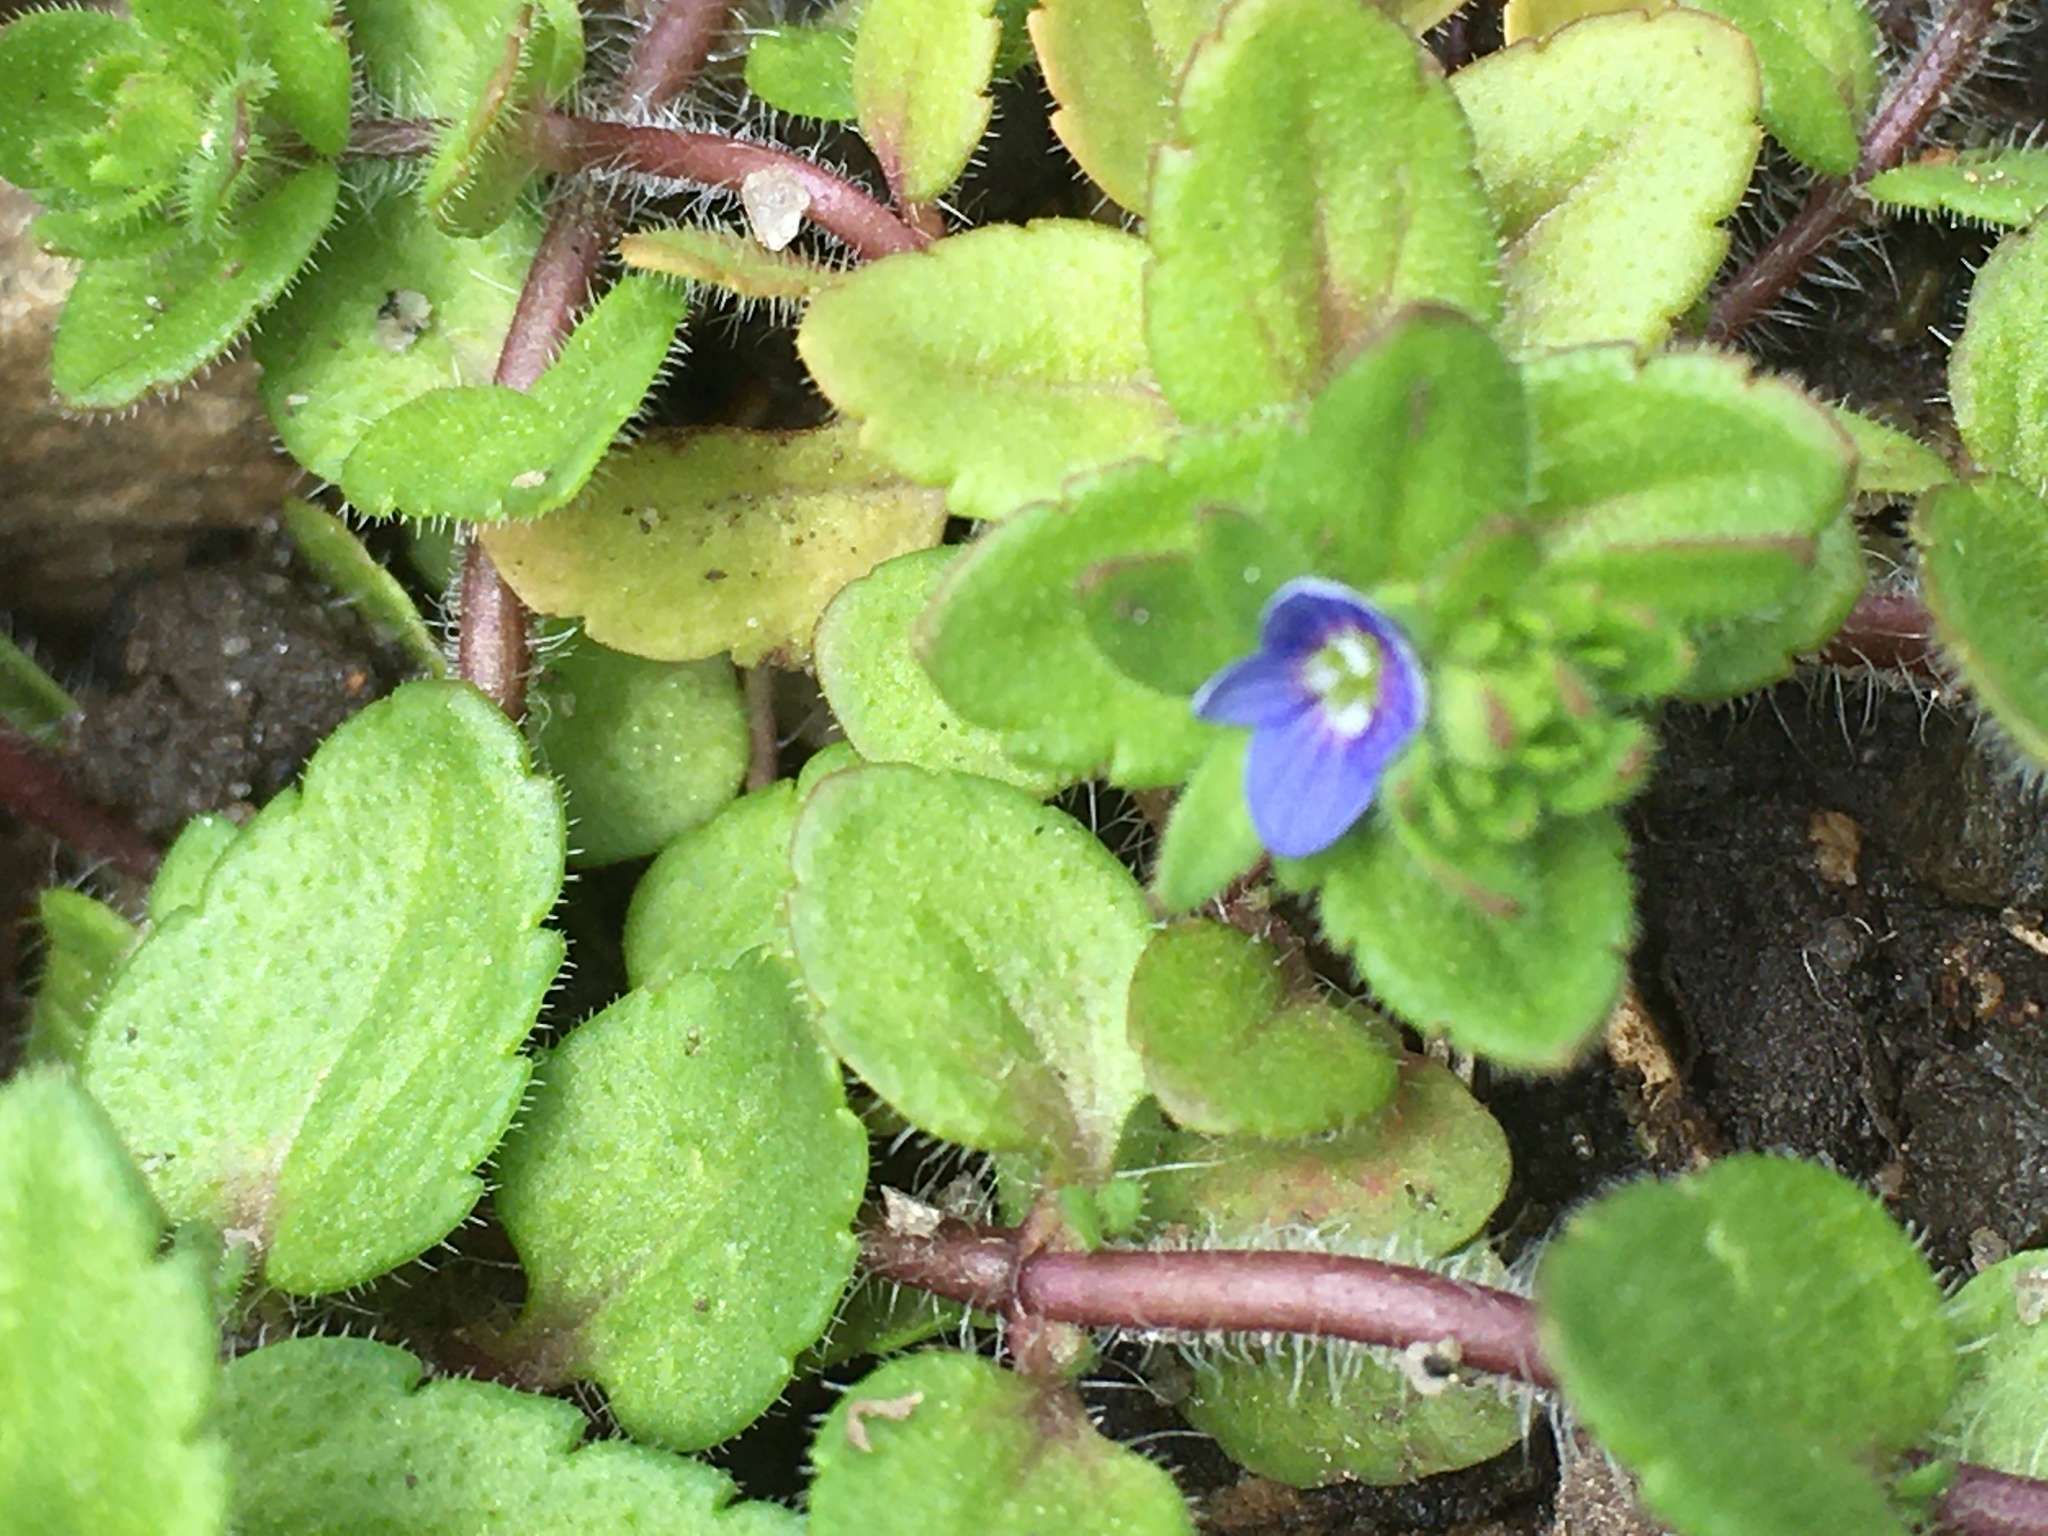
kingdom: Plantae
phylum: Tracheophyta
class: Magnoliopsida
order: Lamiales
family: Plantaginaceae
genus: Veronica
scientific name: Veronica arvensis
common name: Corn speedwell
